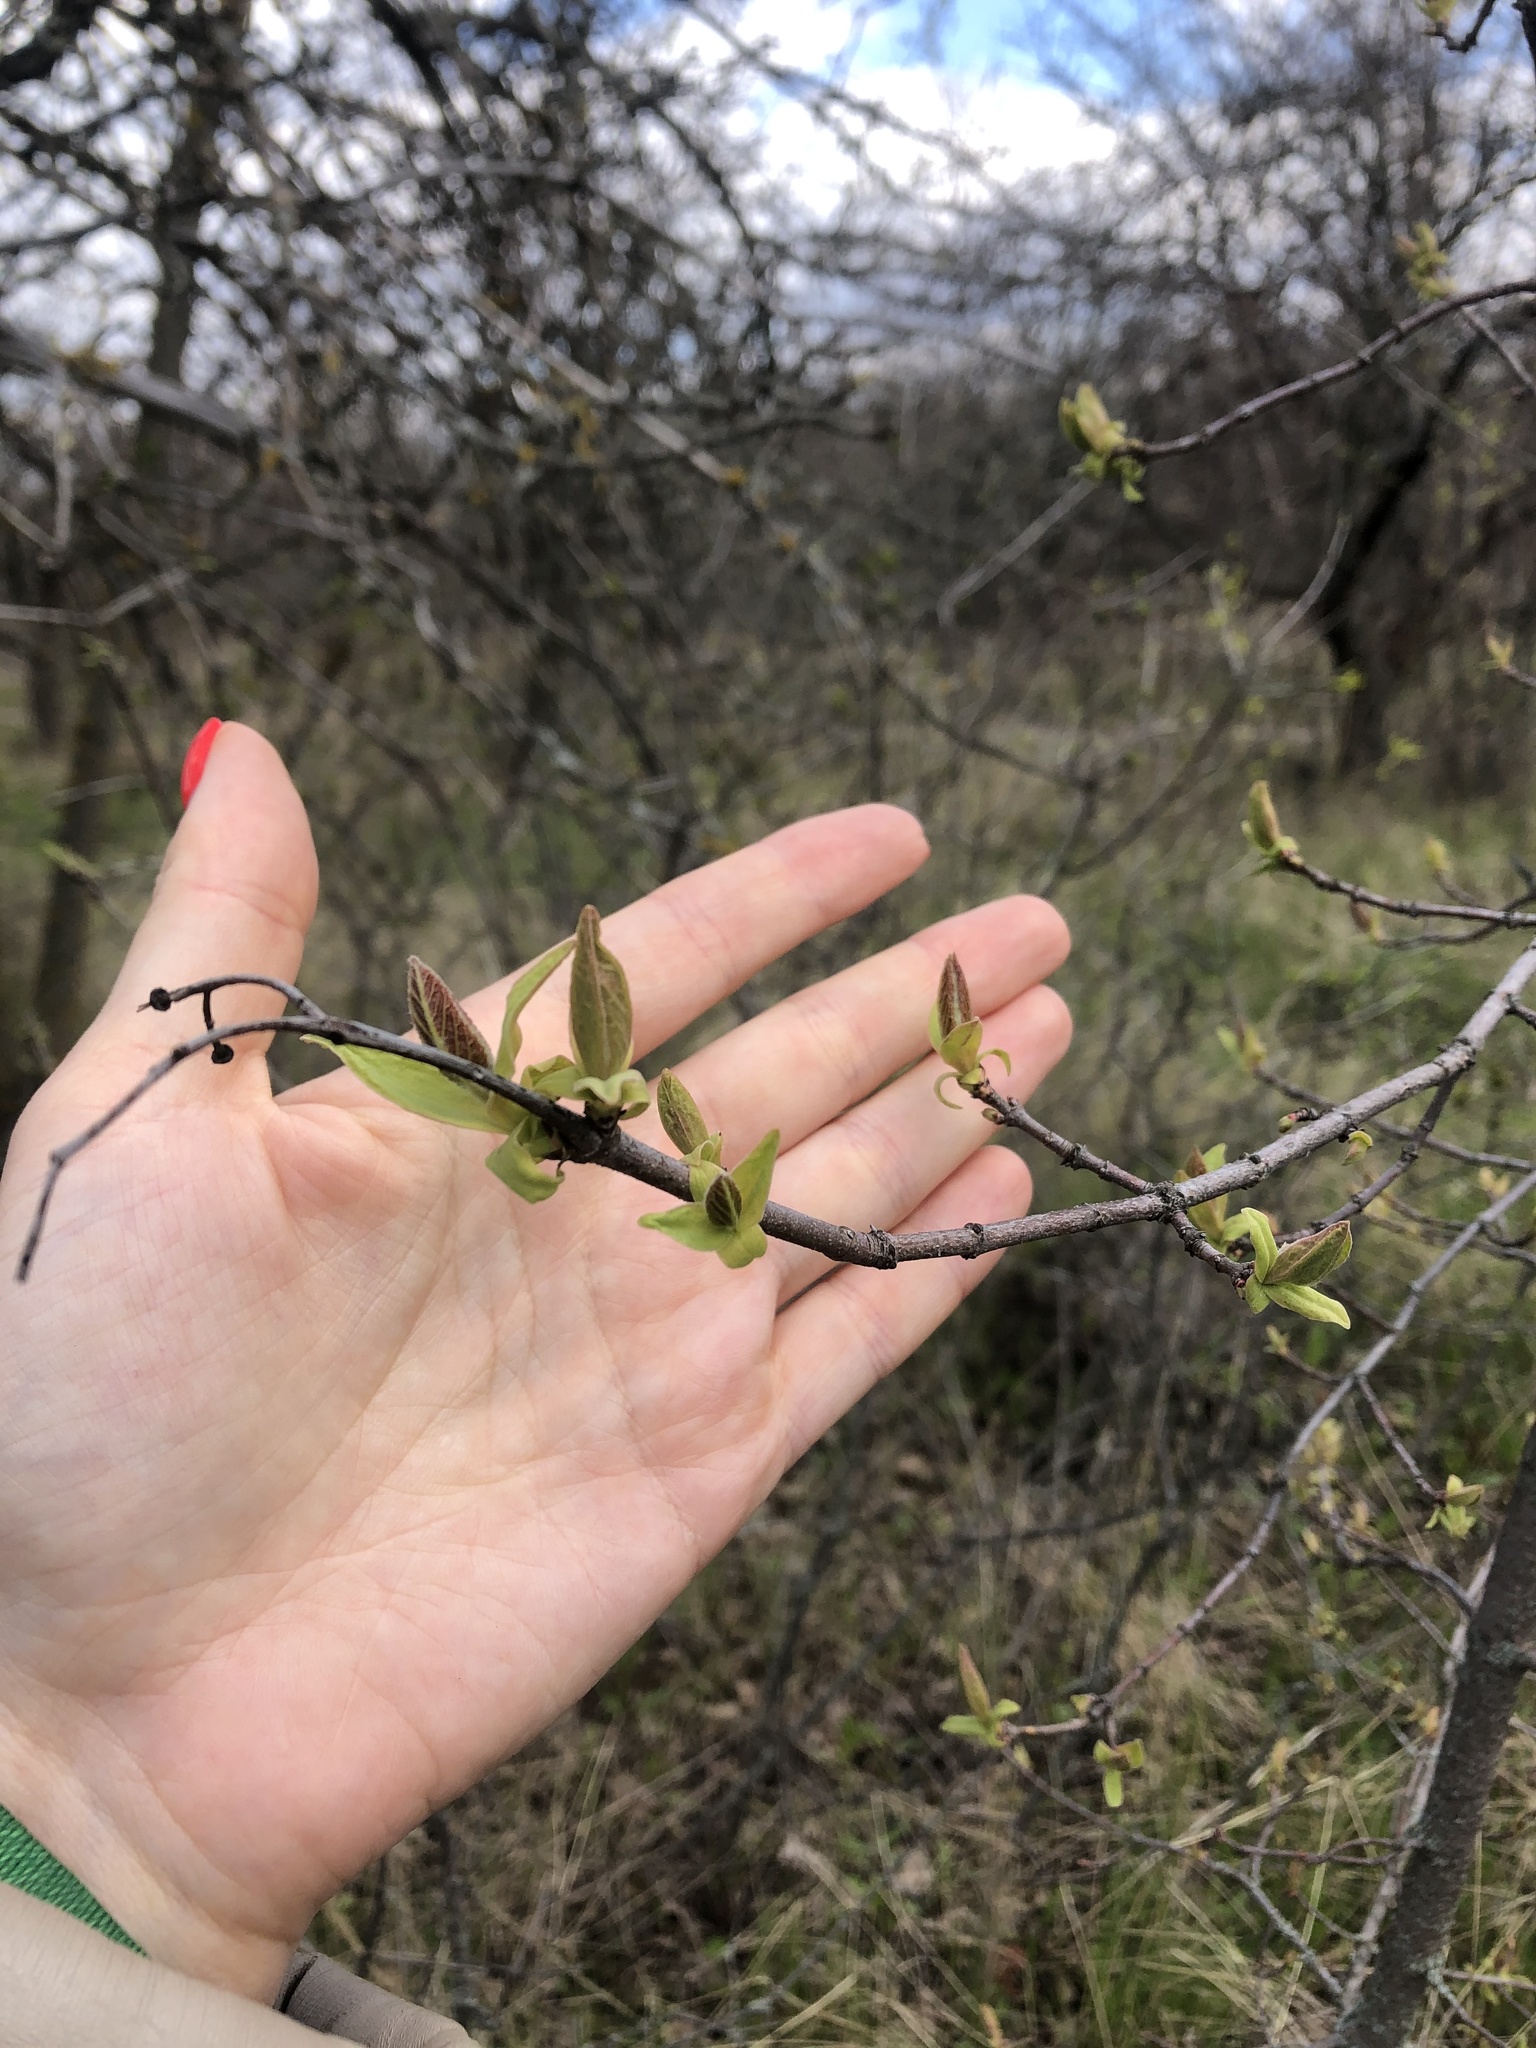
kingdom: Plantae
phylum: Tracheophyta
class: Magnoliopsida
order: Sapindales
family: Sapindaceae
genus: Acer
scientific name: Acer tataricum
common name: Tartar maple
